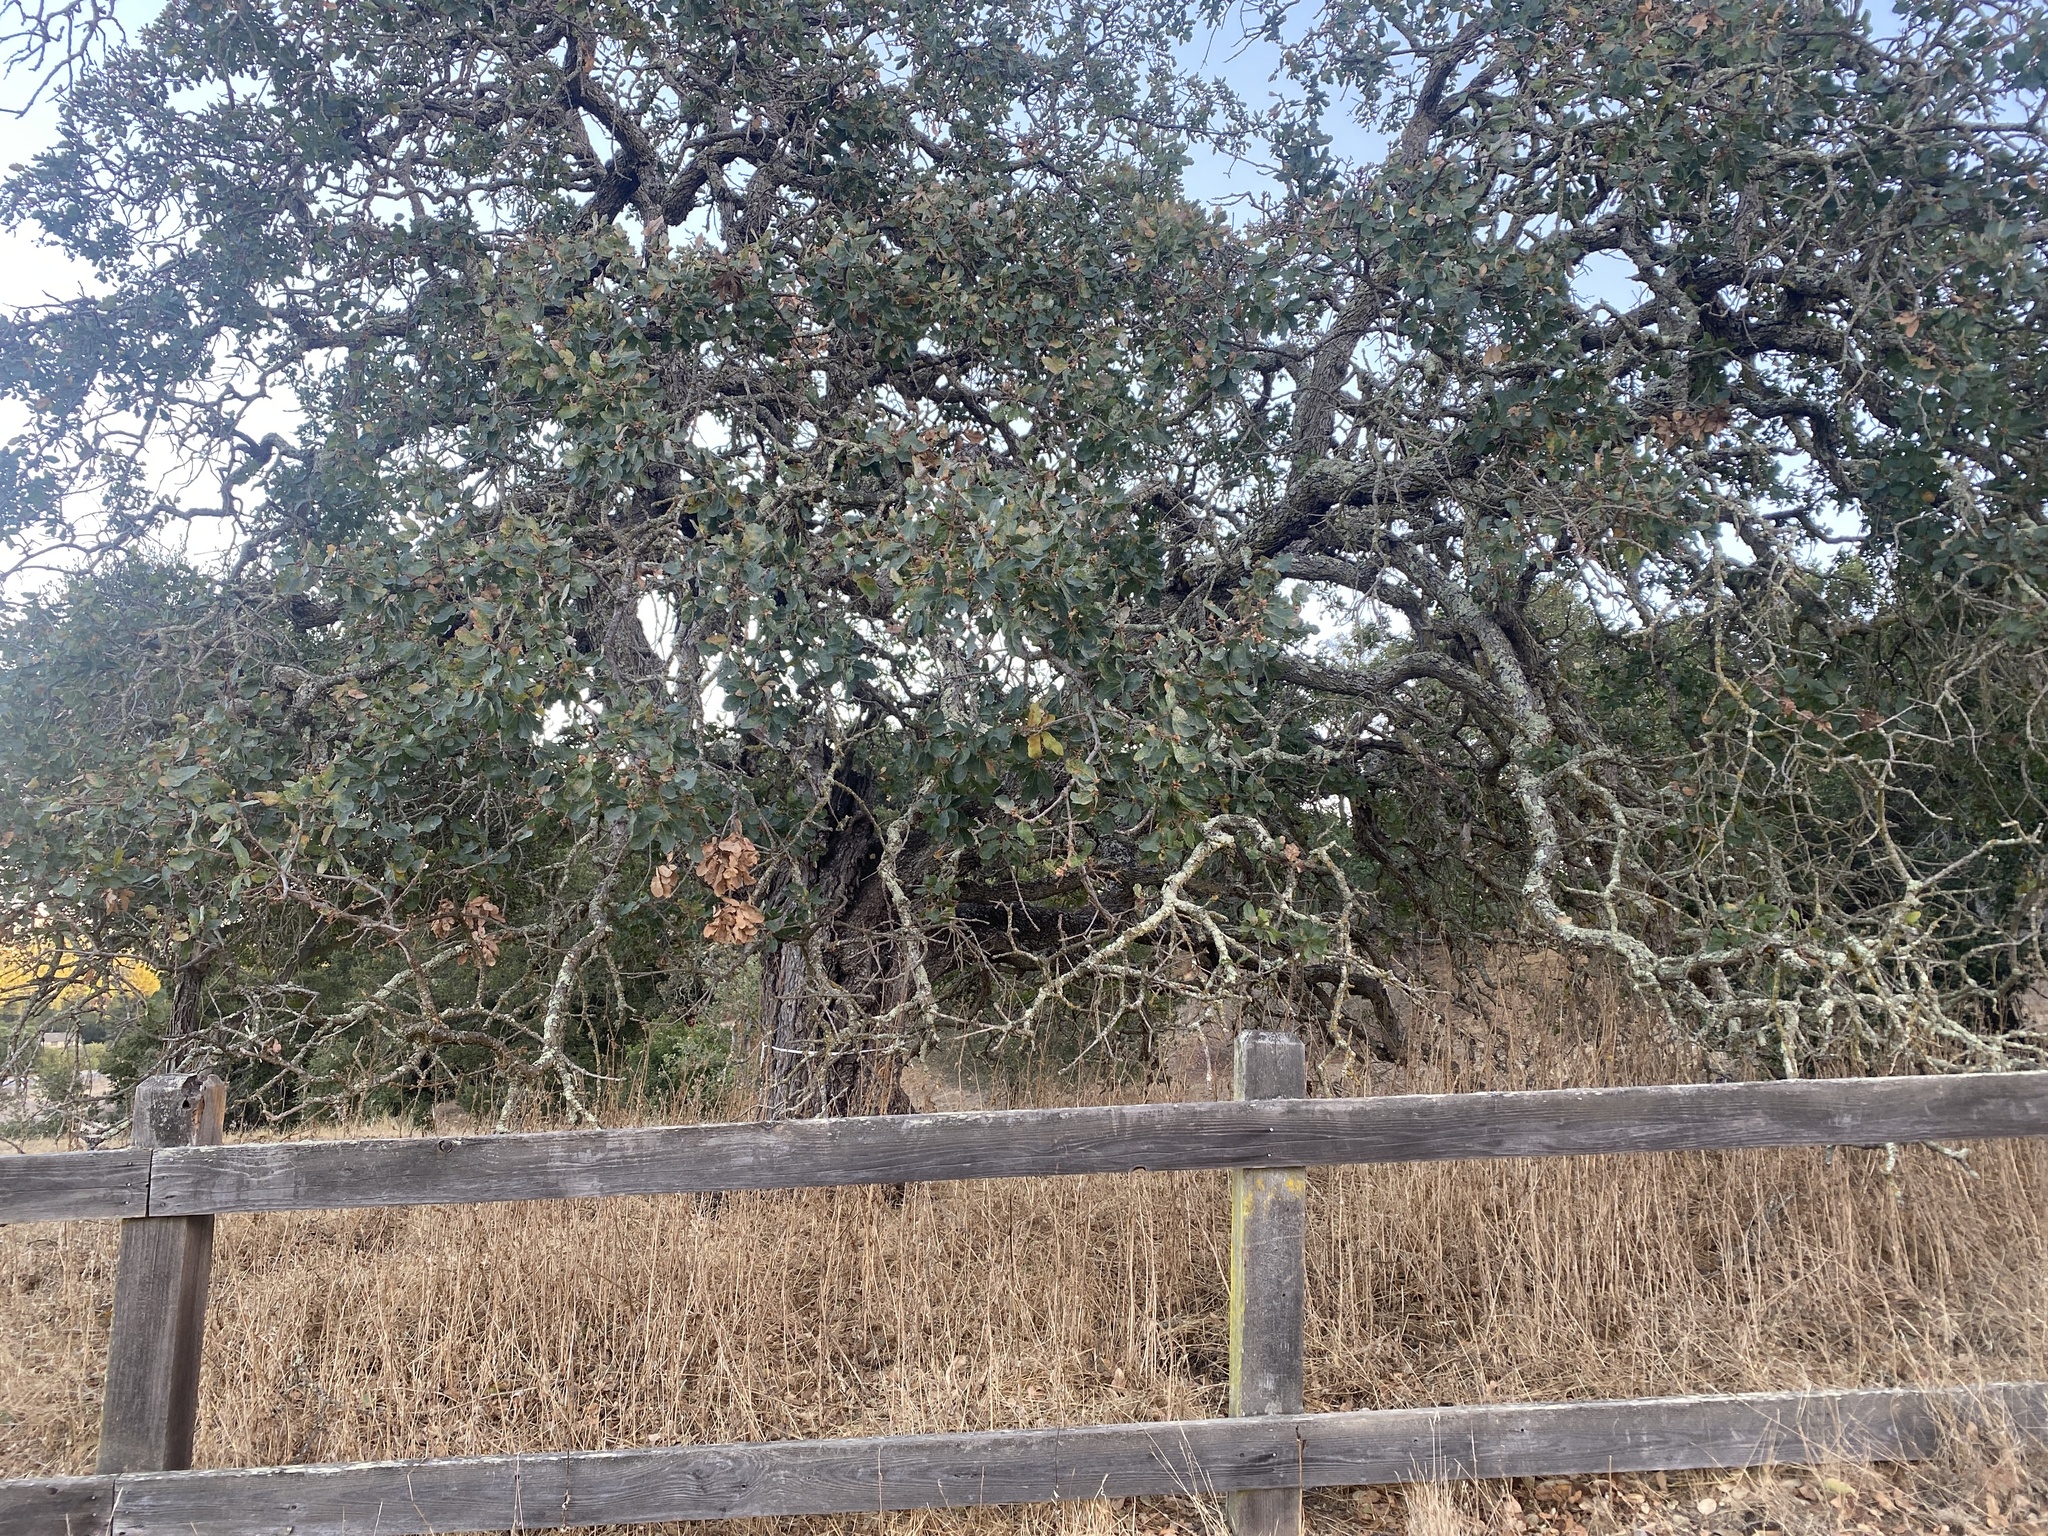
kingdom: Plantae
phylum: Tracheophyta
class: Magnoliopsida
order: Fagales
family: Fagaceae
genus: Quercus
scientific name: Quercus douglasii
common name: Blue oak
